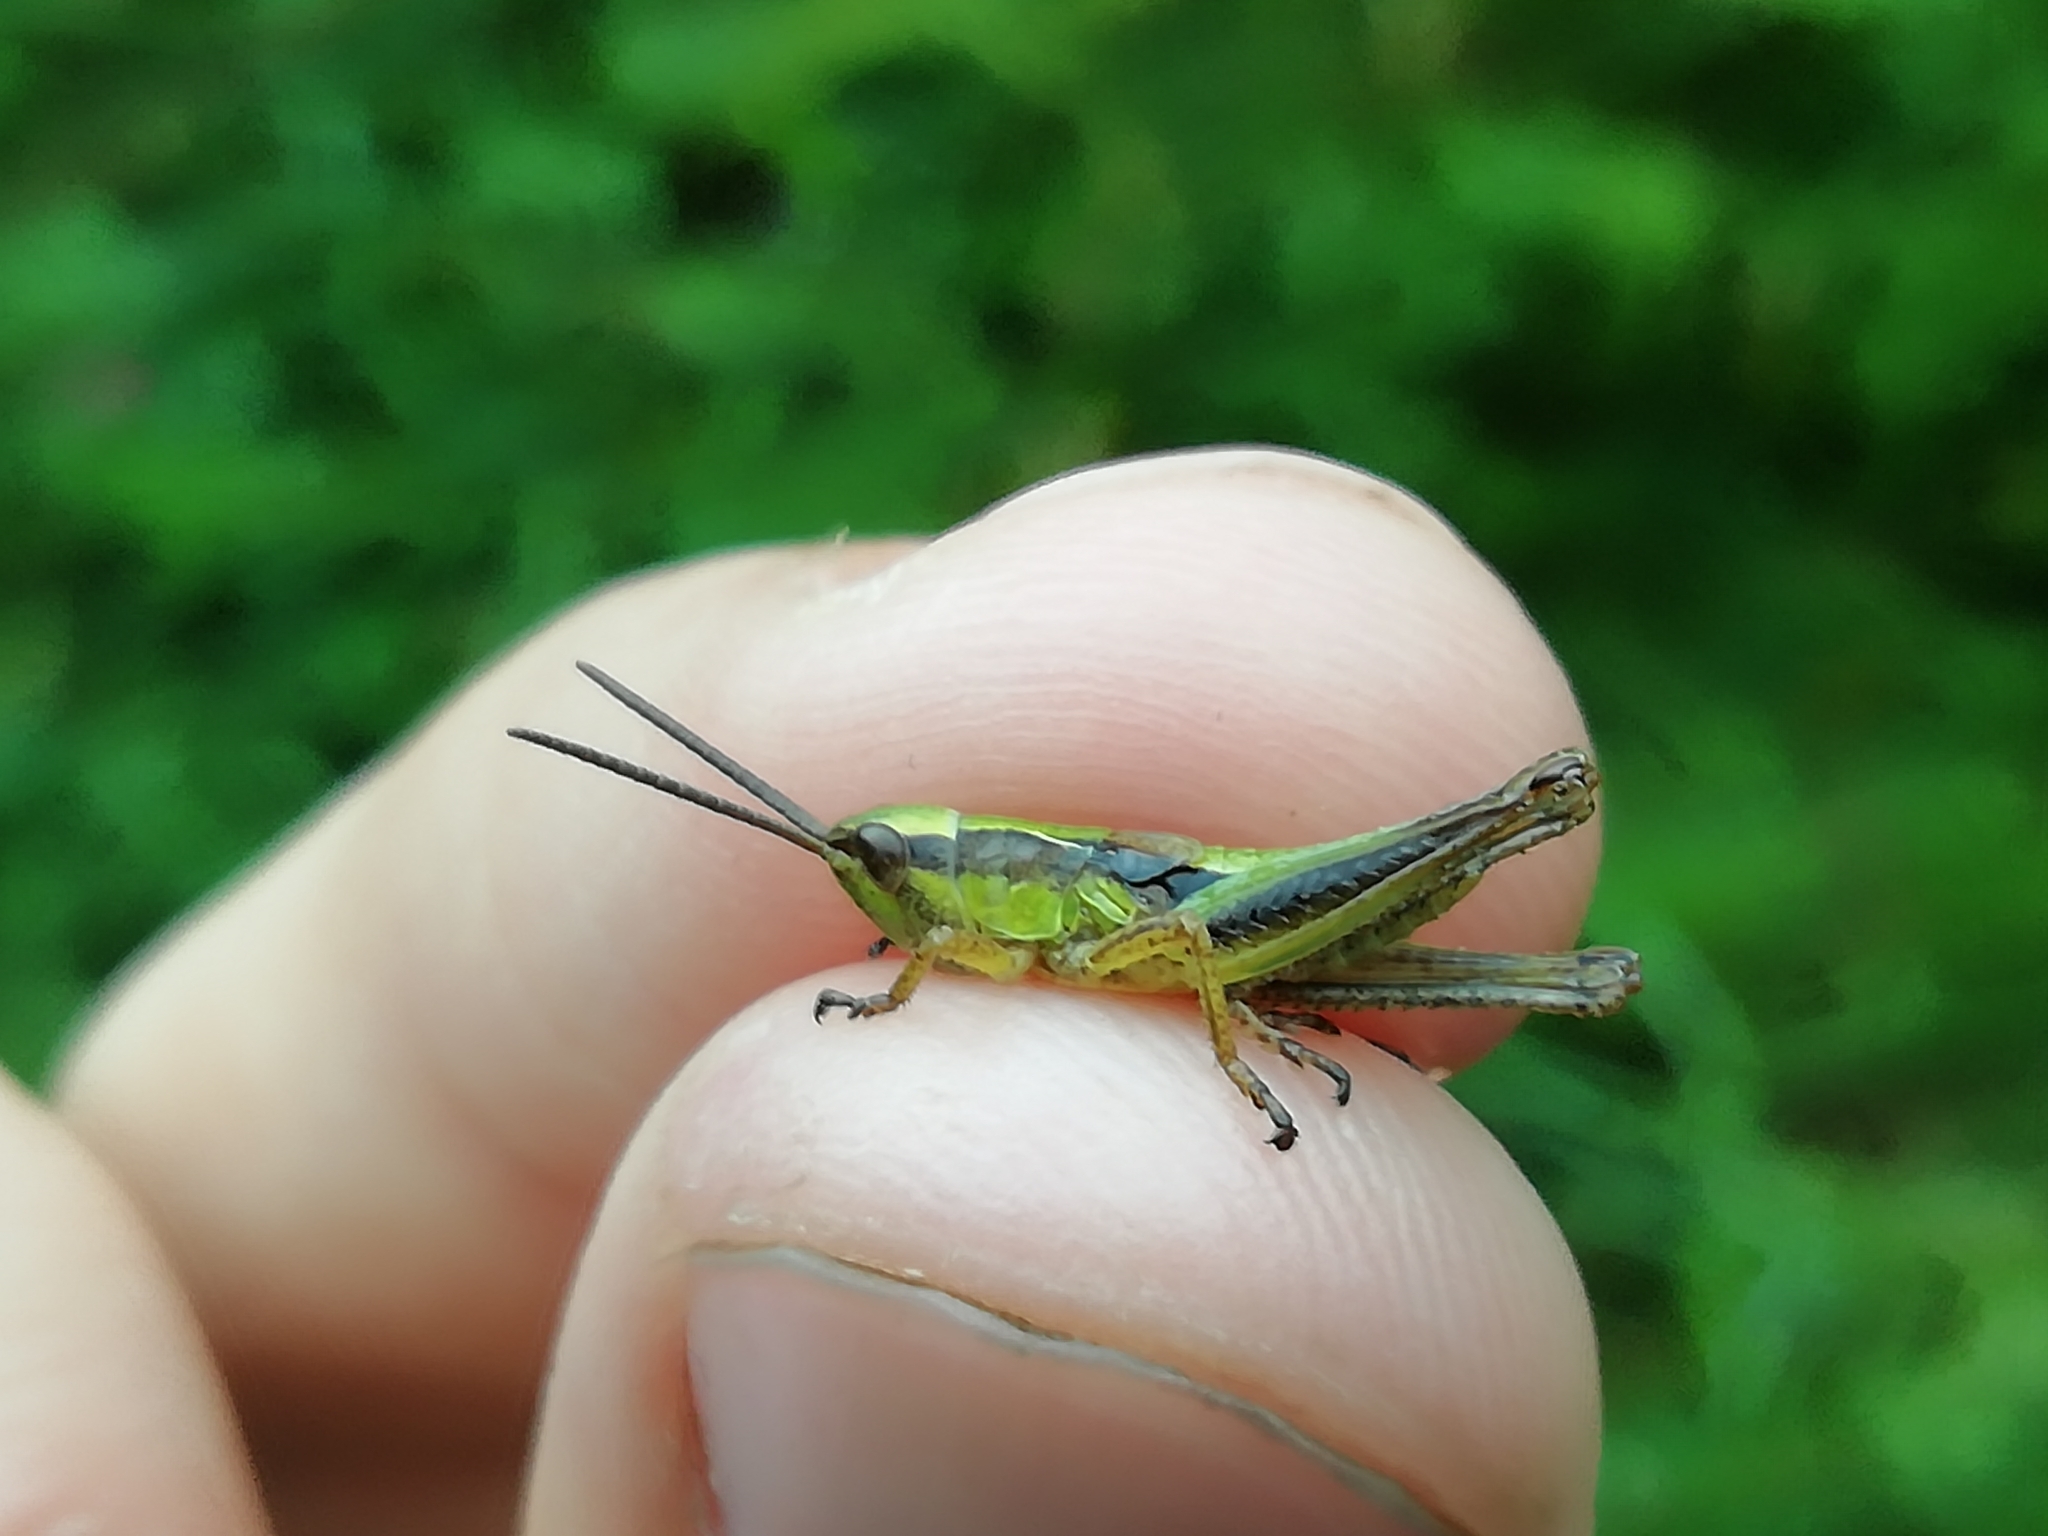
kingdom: Animalia
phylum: Arthropoda
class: Insecta
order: Orthoptera
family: Acrididae
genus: Chorthippus
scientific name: Chorthippus fallax
